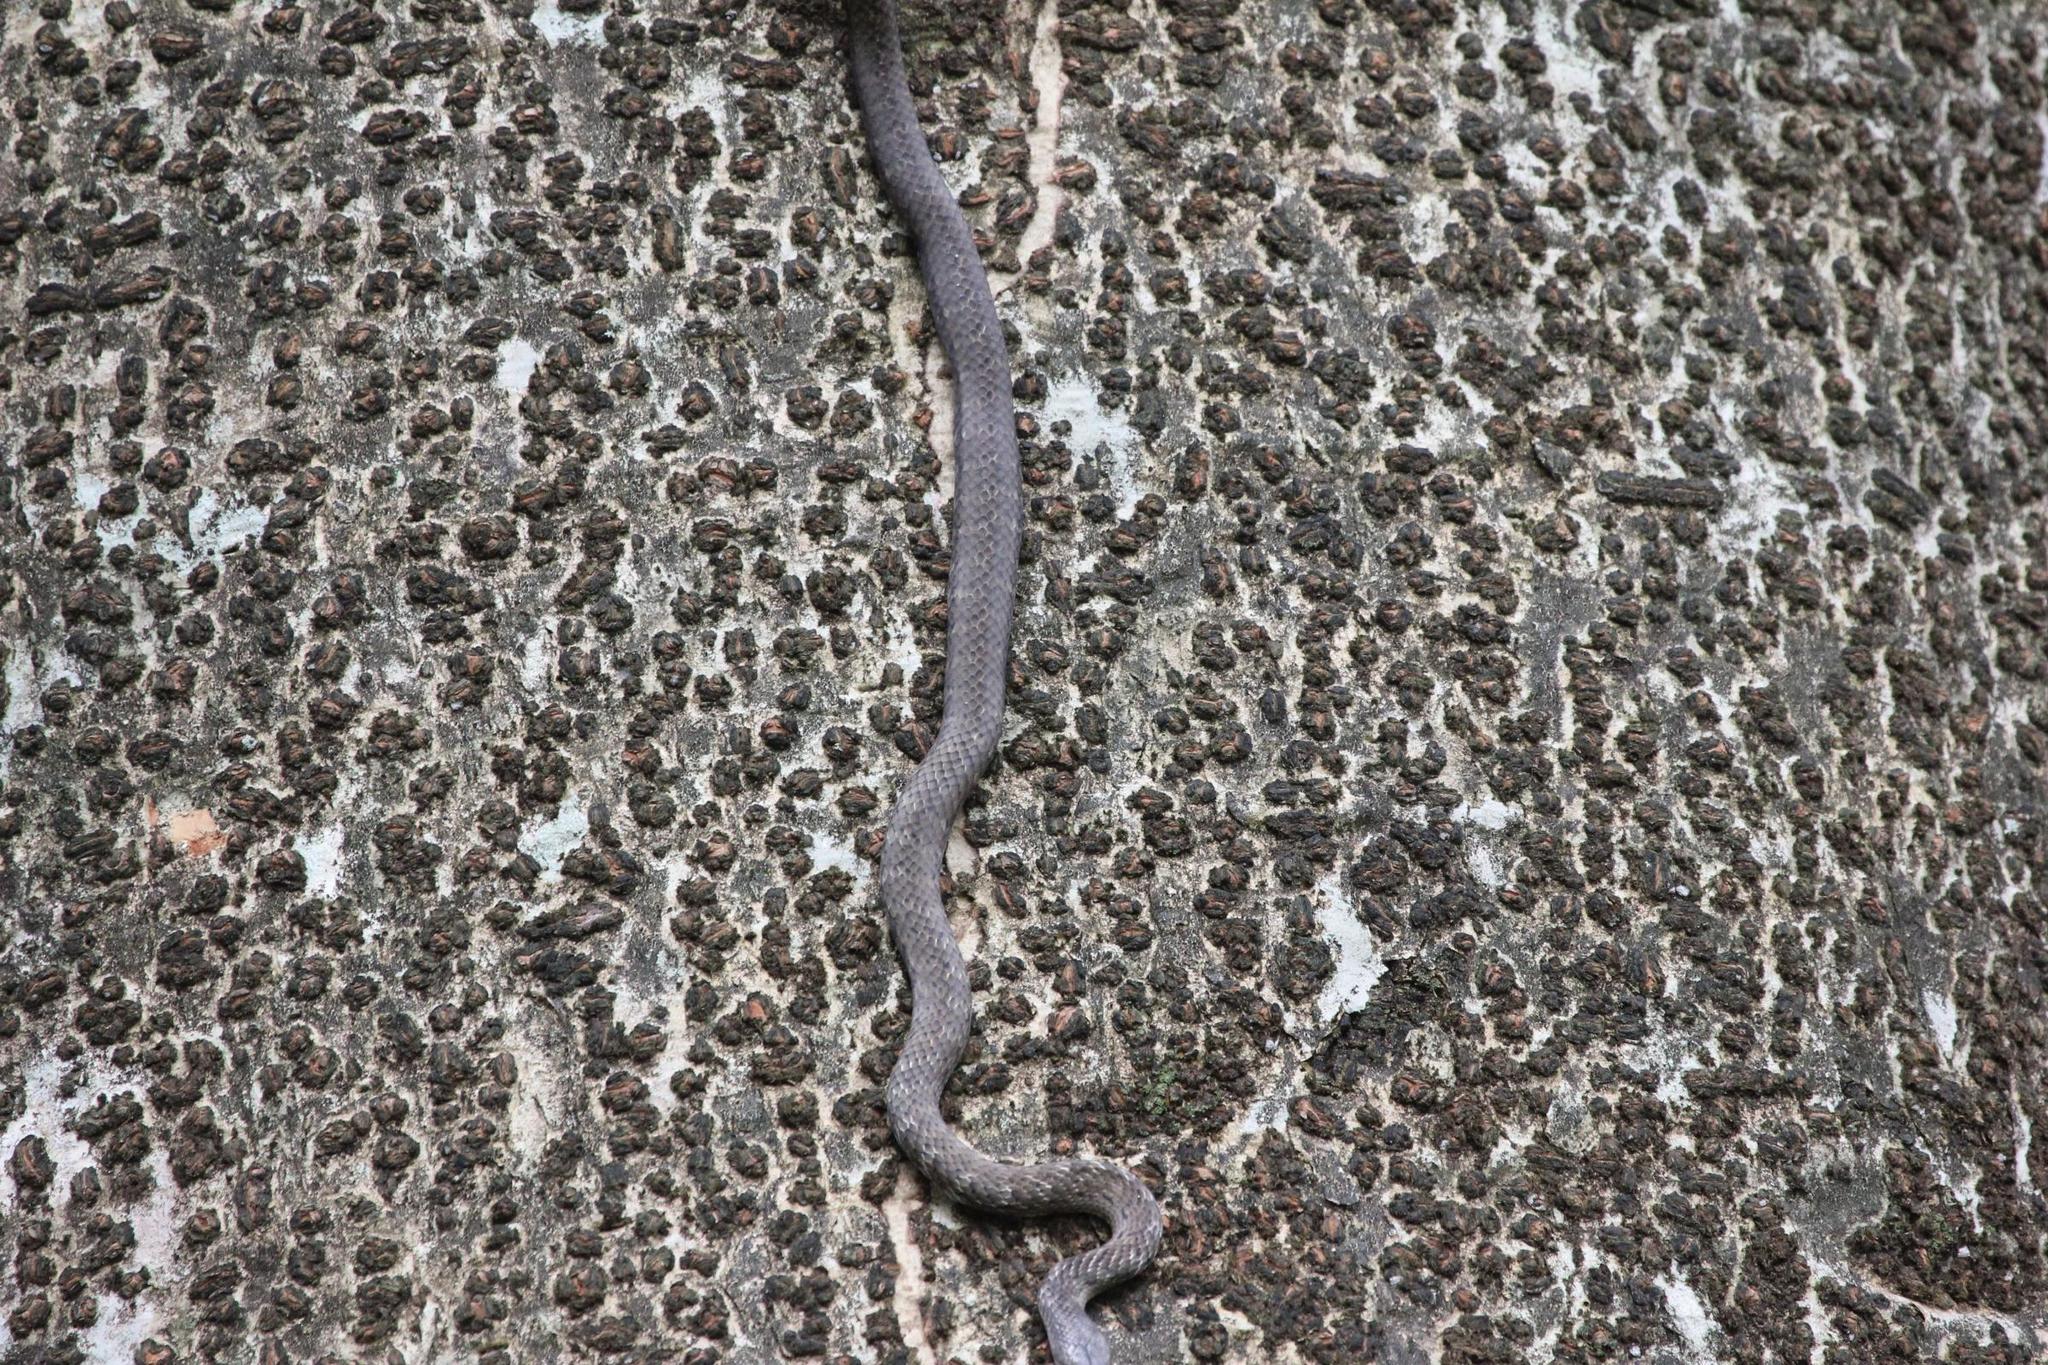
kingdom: Animalia
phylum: Chordata
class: Squamata
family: Colubridae
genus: Borikenophis
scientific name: Borikenophis portoricensis
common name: Puerto rican racer
